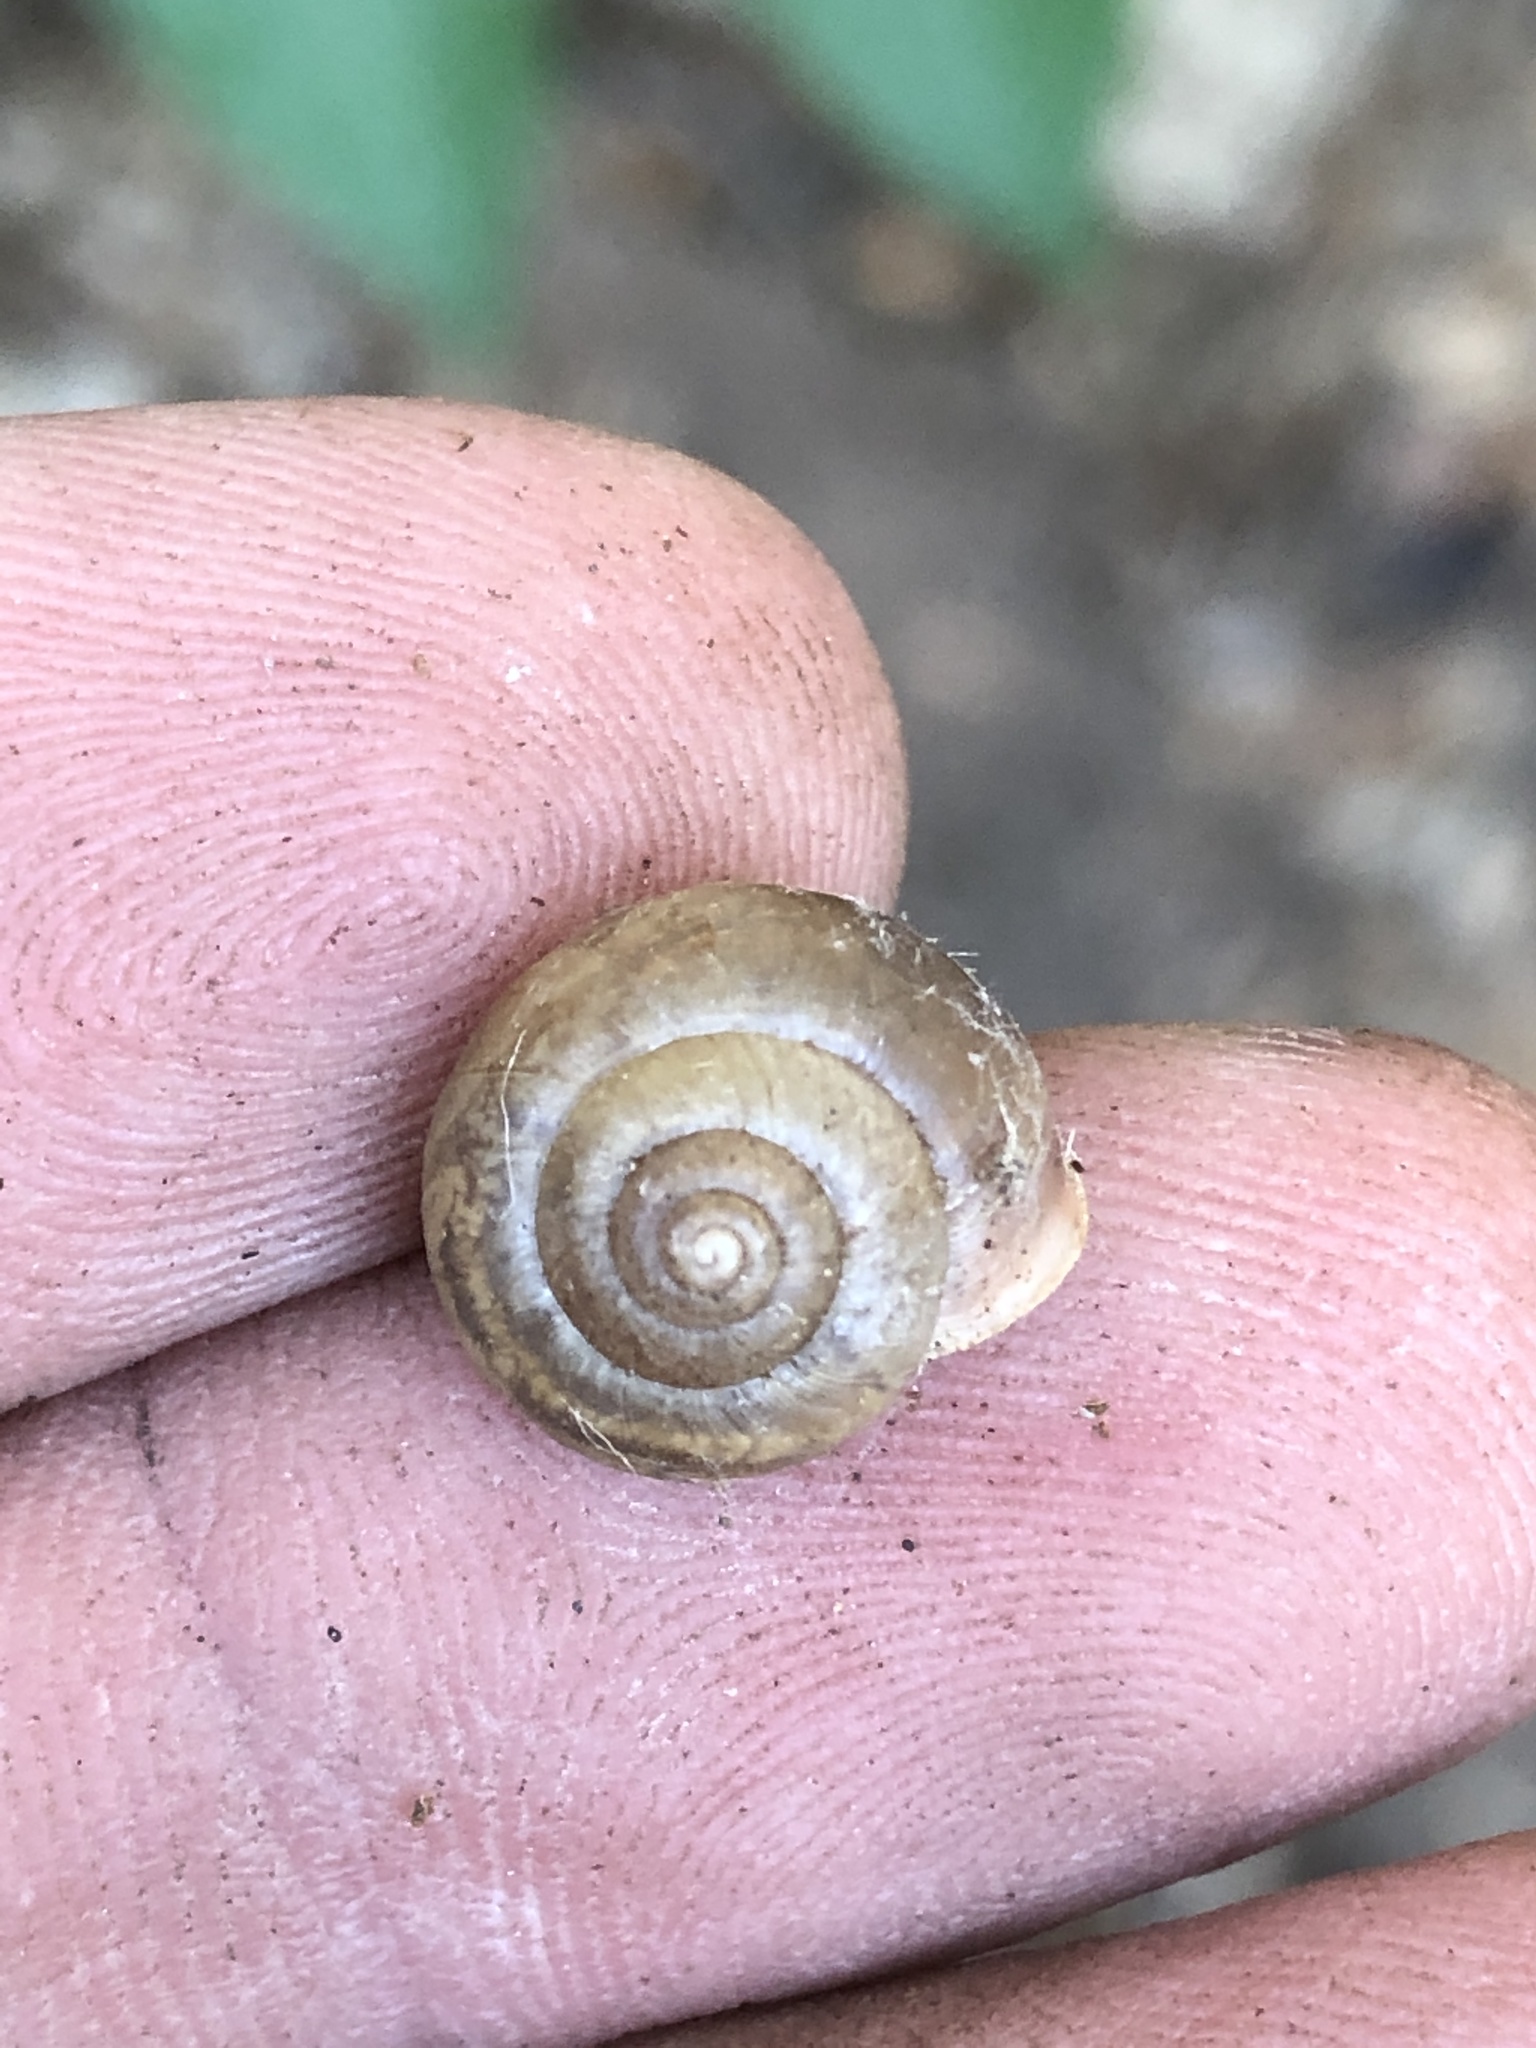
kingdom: Animalia
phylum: Mollusca
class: Gastropoda
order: Stylommatophora
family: Camaenidae
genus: Bradybaena
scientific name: Bradybaena similaris
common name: Asian trampsnail
